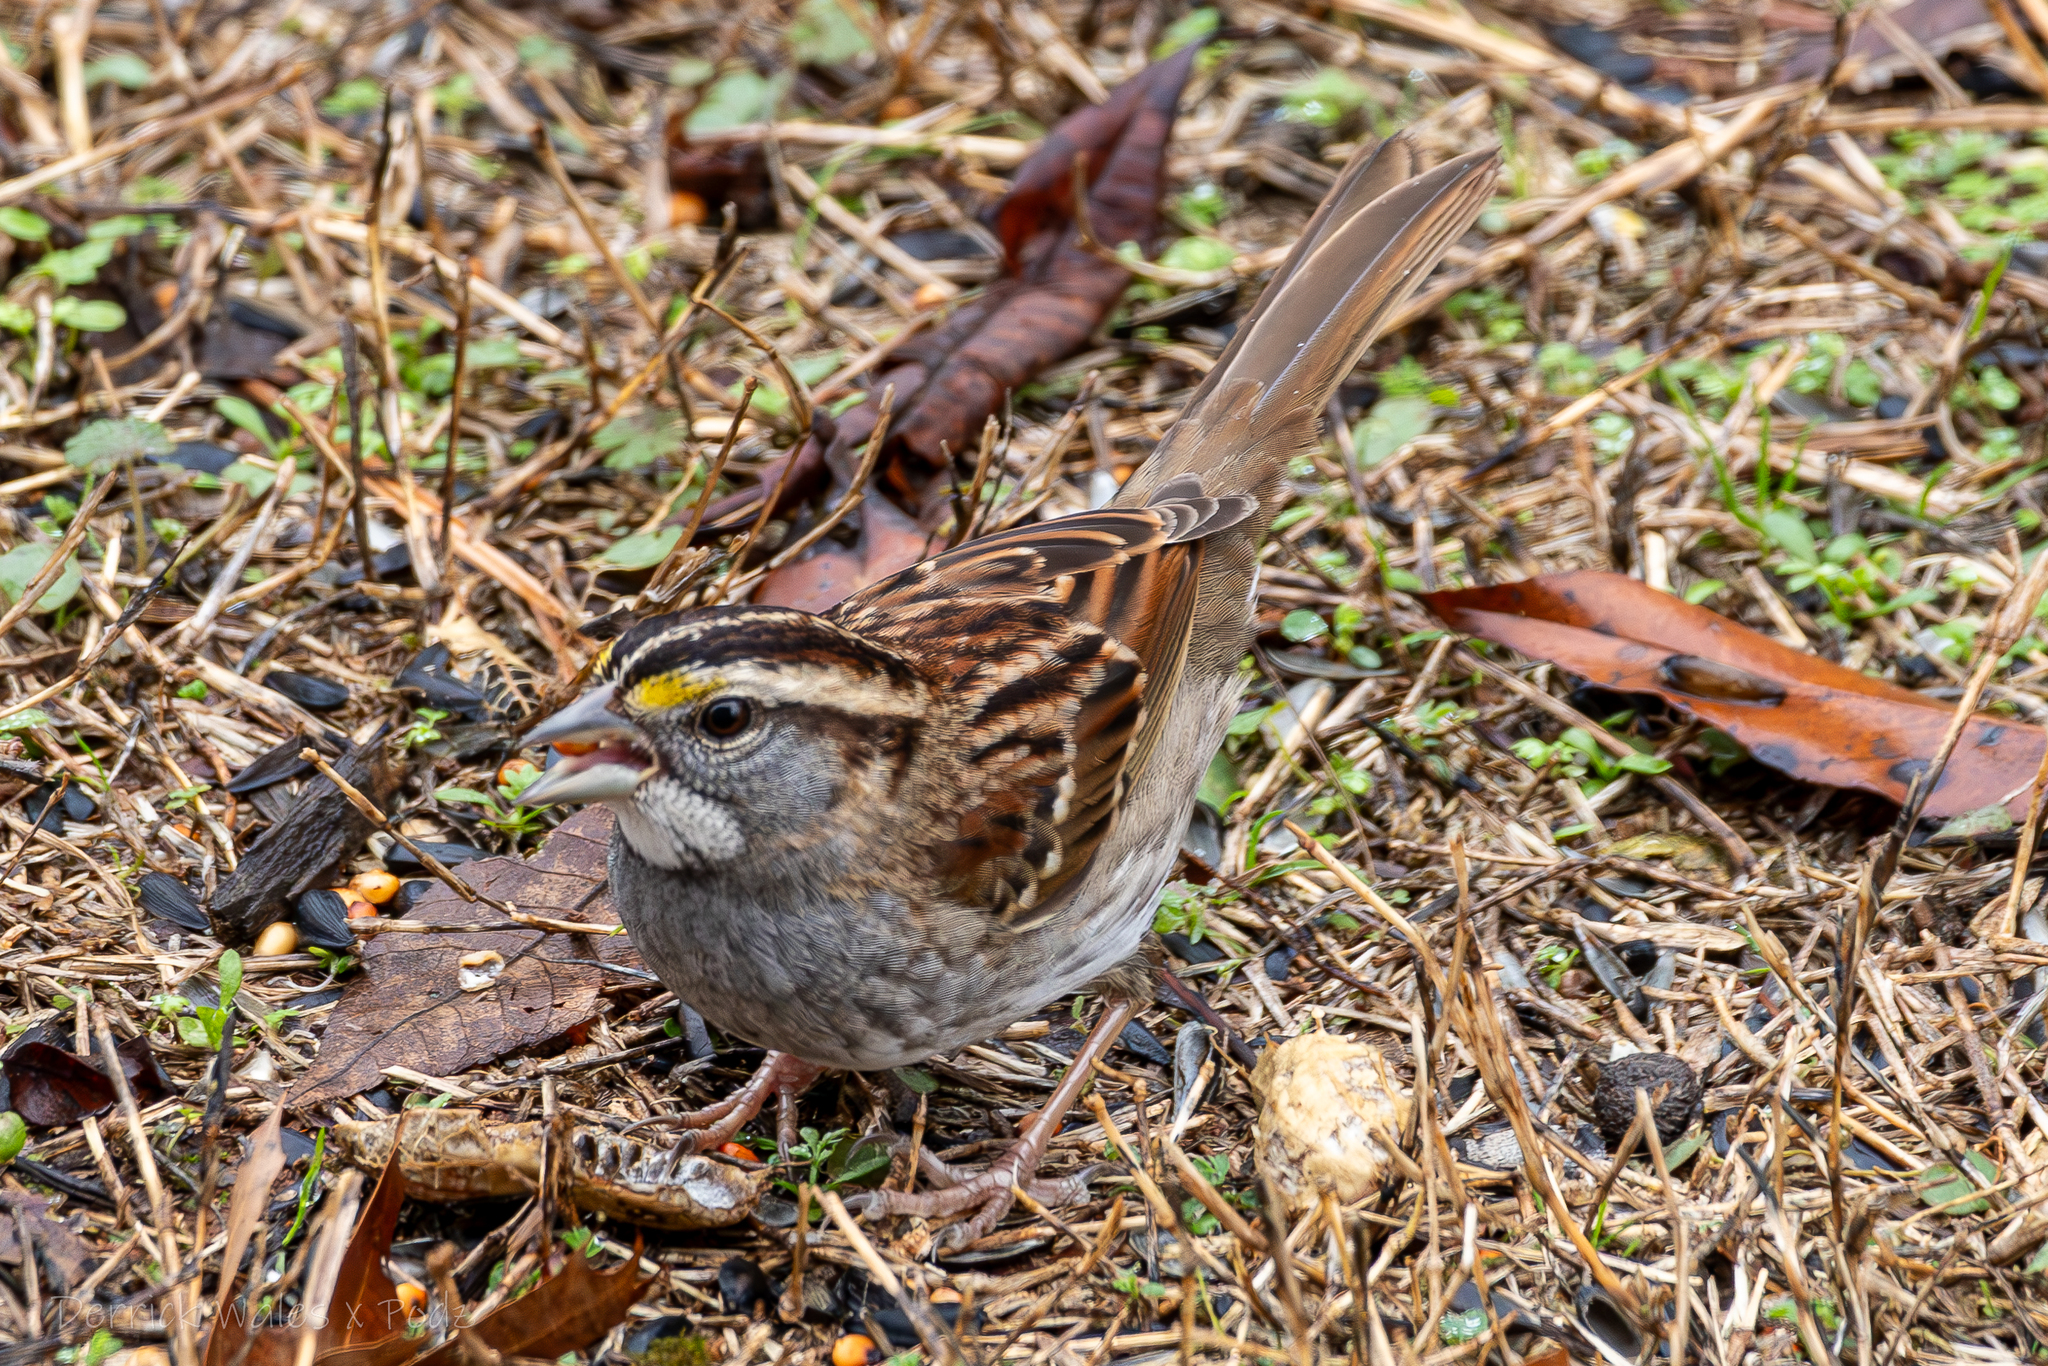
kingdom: Animalia
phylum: Chordata
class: Aves
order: Passeriformes
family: Passerellidae
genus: Zonotrichia
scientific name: Zonotrichia albicollis
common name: White-throated sparrow
